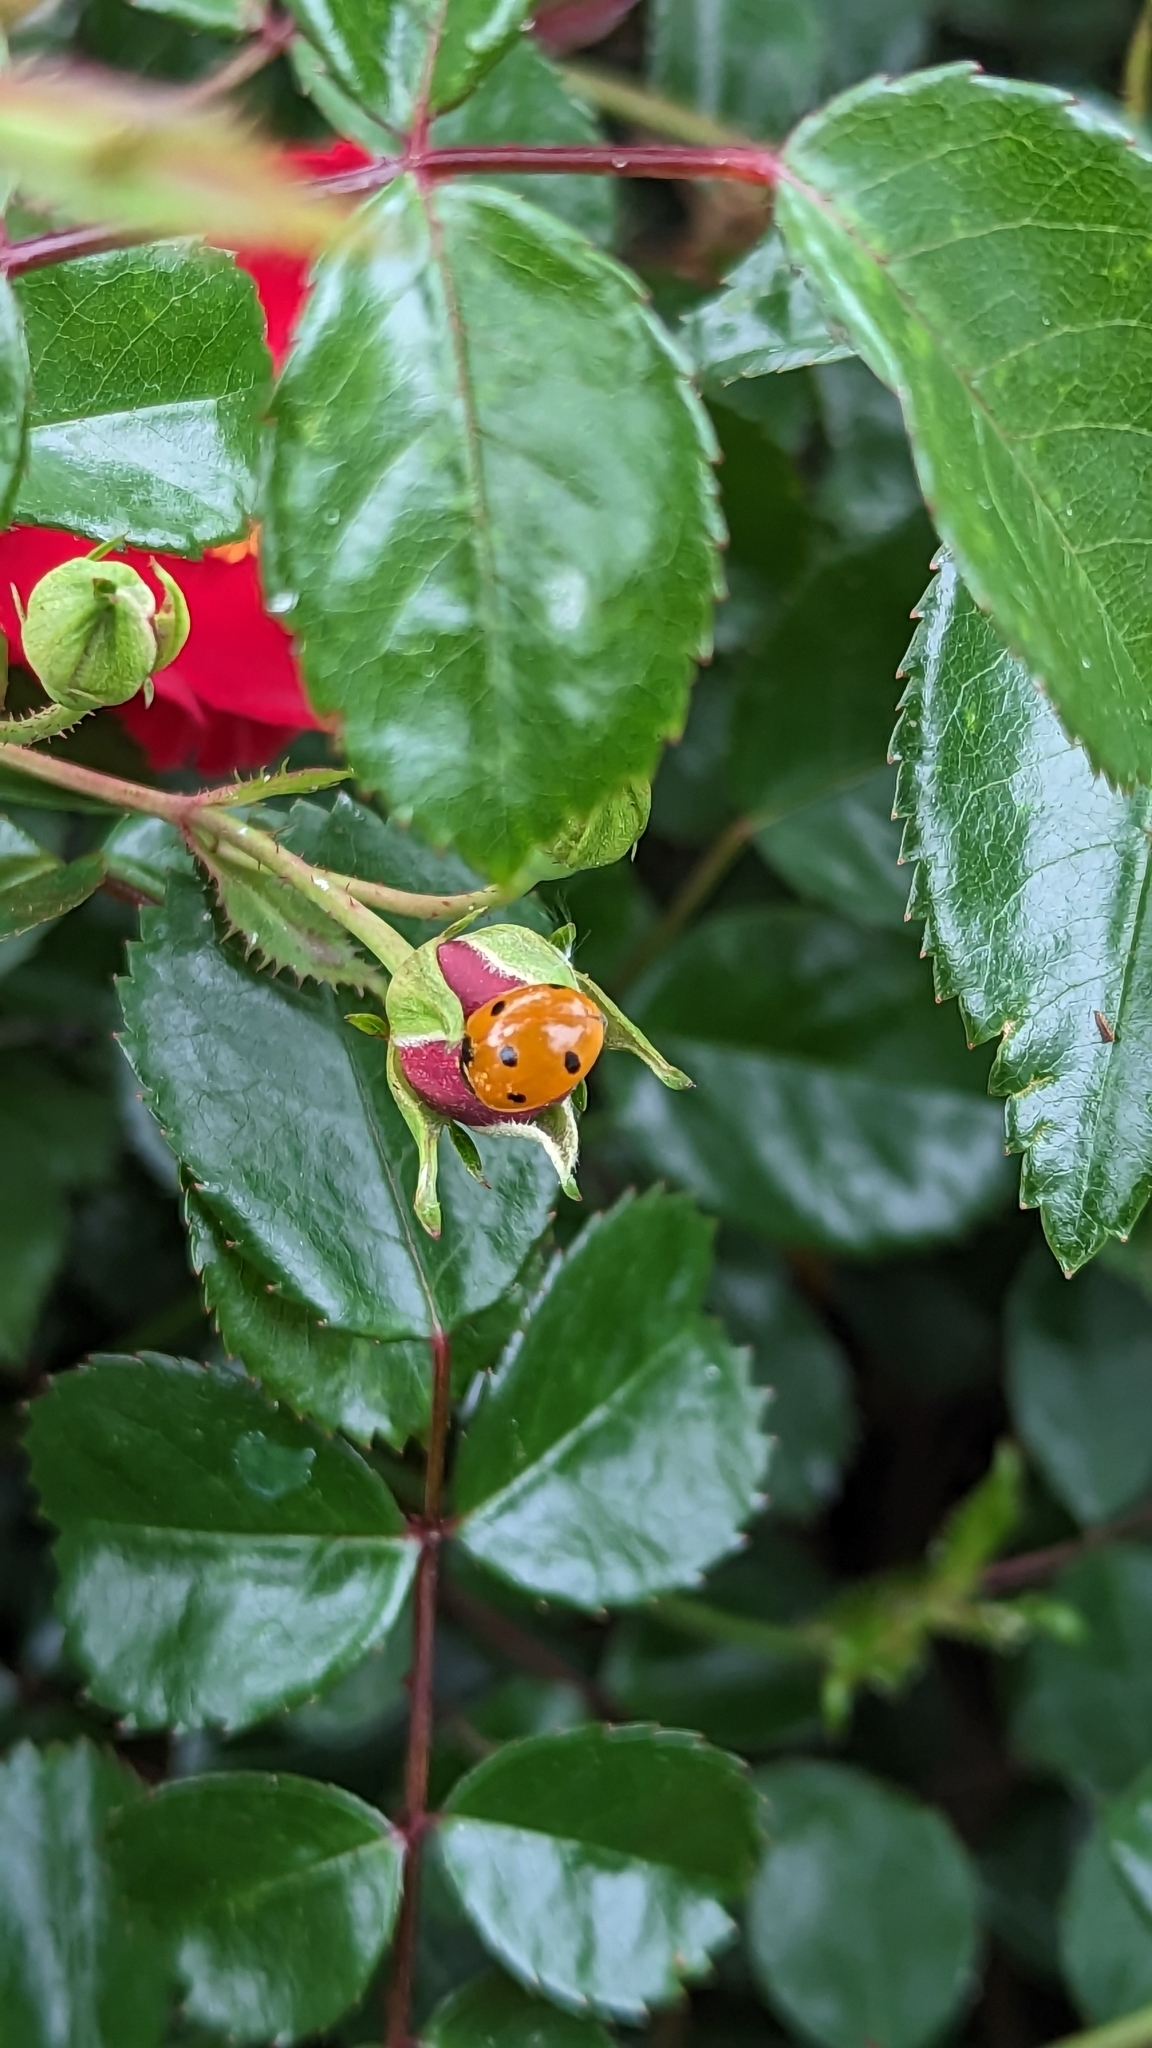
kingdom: Animalia
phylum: Arthropoda
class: Insecta
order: Coleoptera
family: Coccinellidae
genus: Coccinella
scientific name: Coccinella septempunctata
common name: Sevenspotted lady beetle
